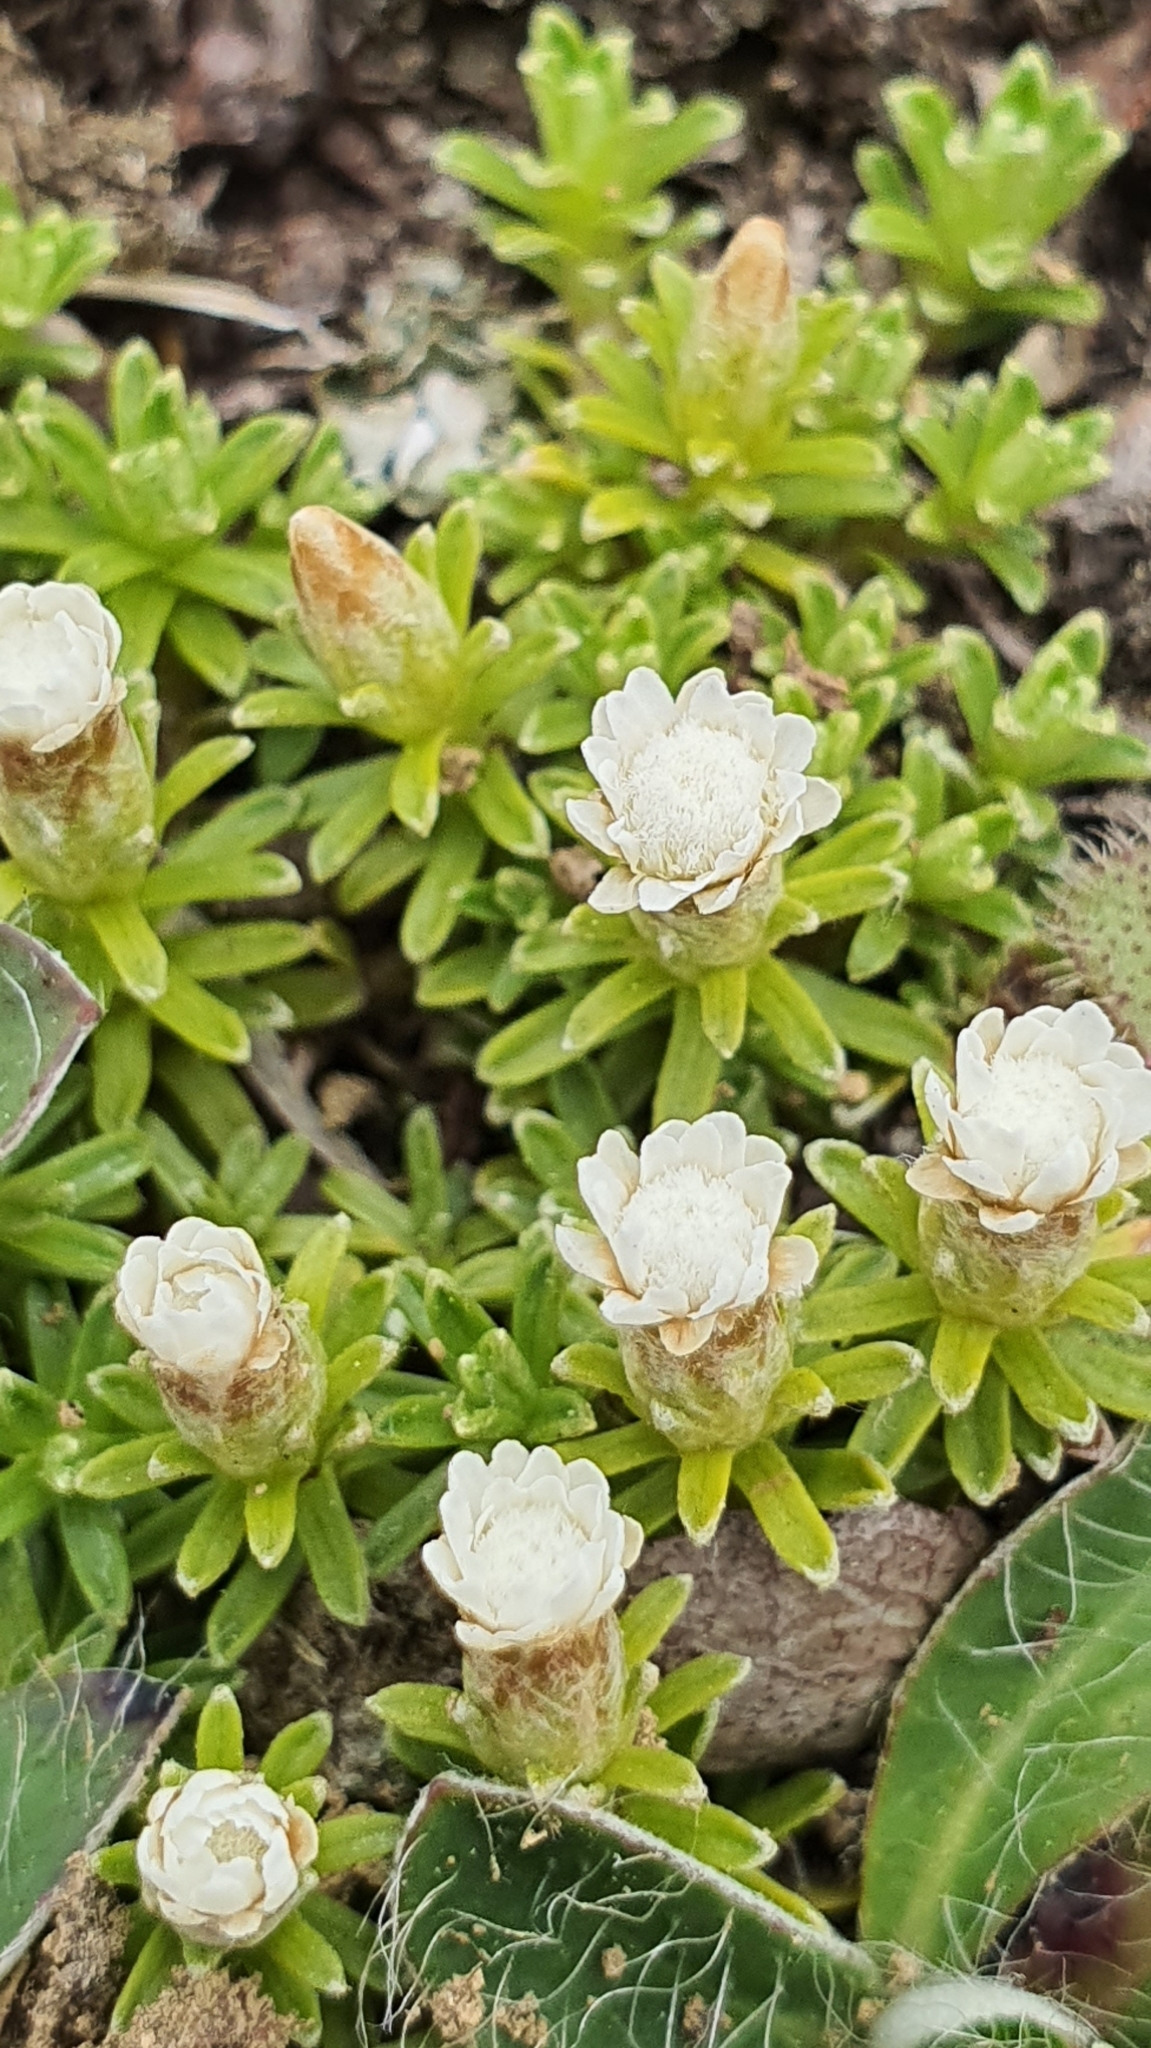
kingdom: Plantae
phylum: Tracheophyta
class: Magnoliopsida
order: Asterales
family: Asteraceae
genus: Raoulia
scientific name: Raoulia subsericea
